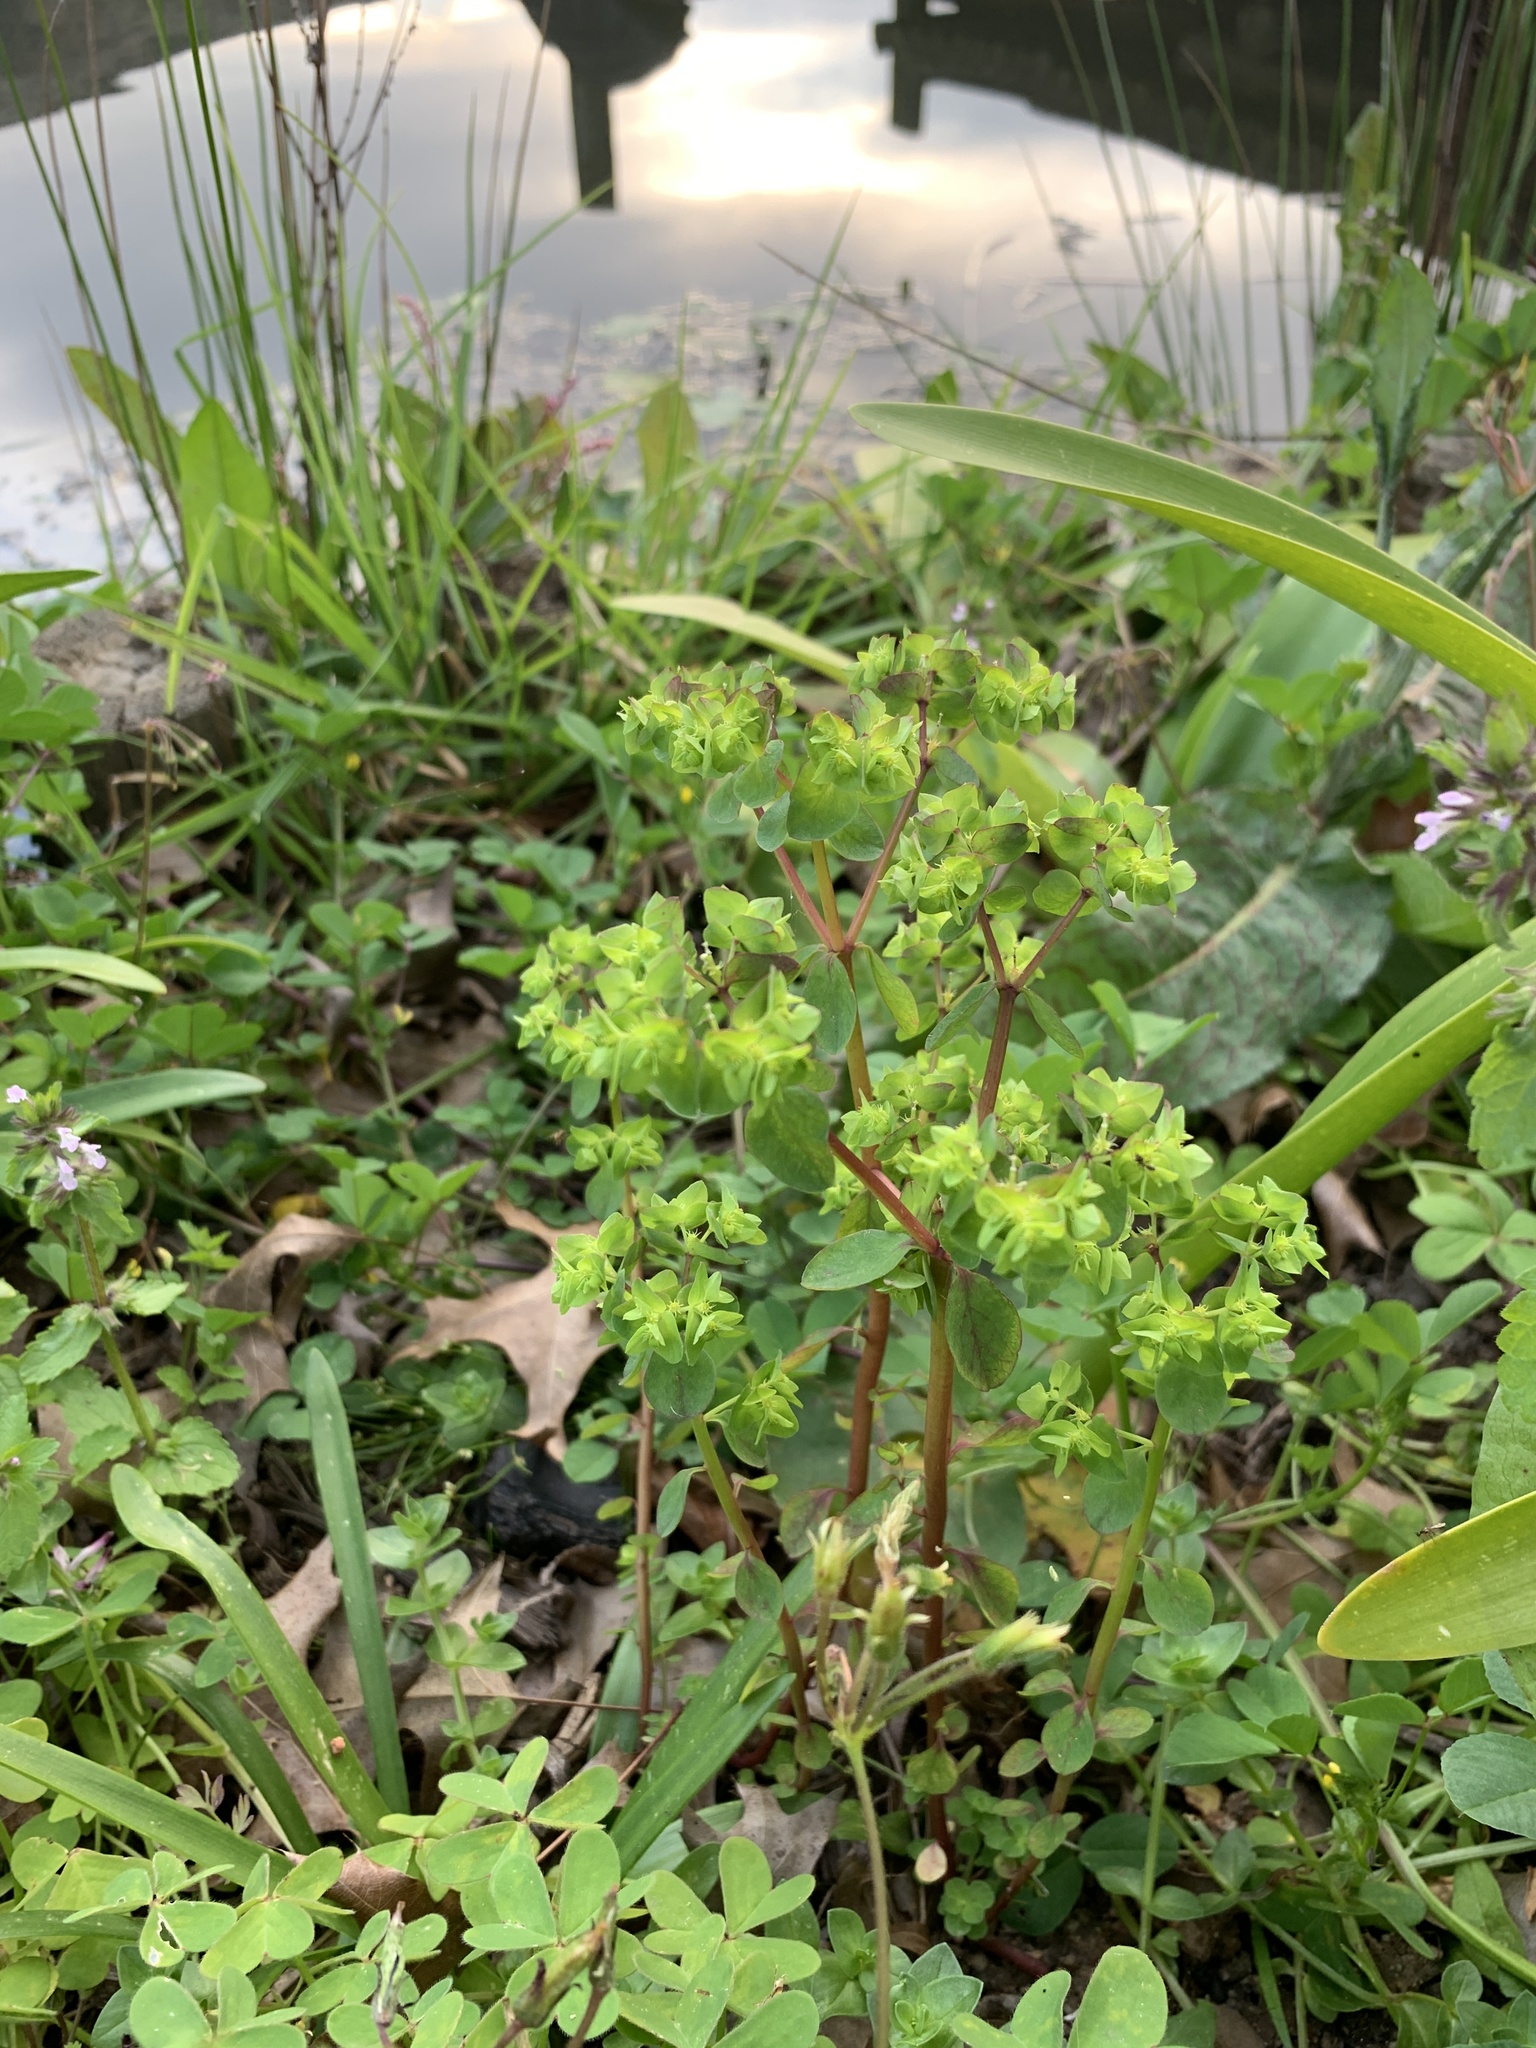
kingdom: Plantae
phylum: Tracheophyta
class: Magnoliopsida
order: Malpighiales
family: Euphorbiaceae
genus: Euphorbia
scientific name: Euphorbia peplus
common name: Petty spurge
